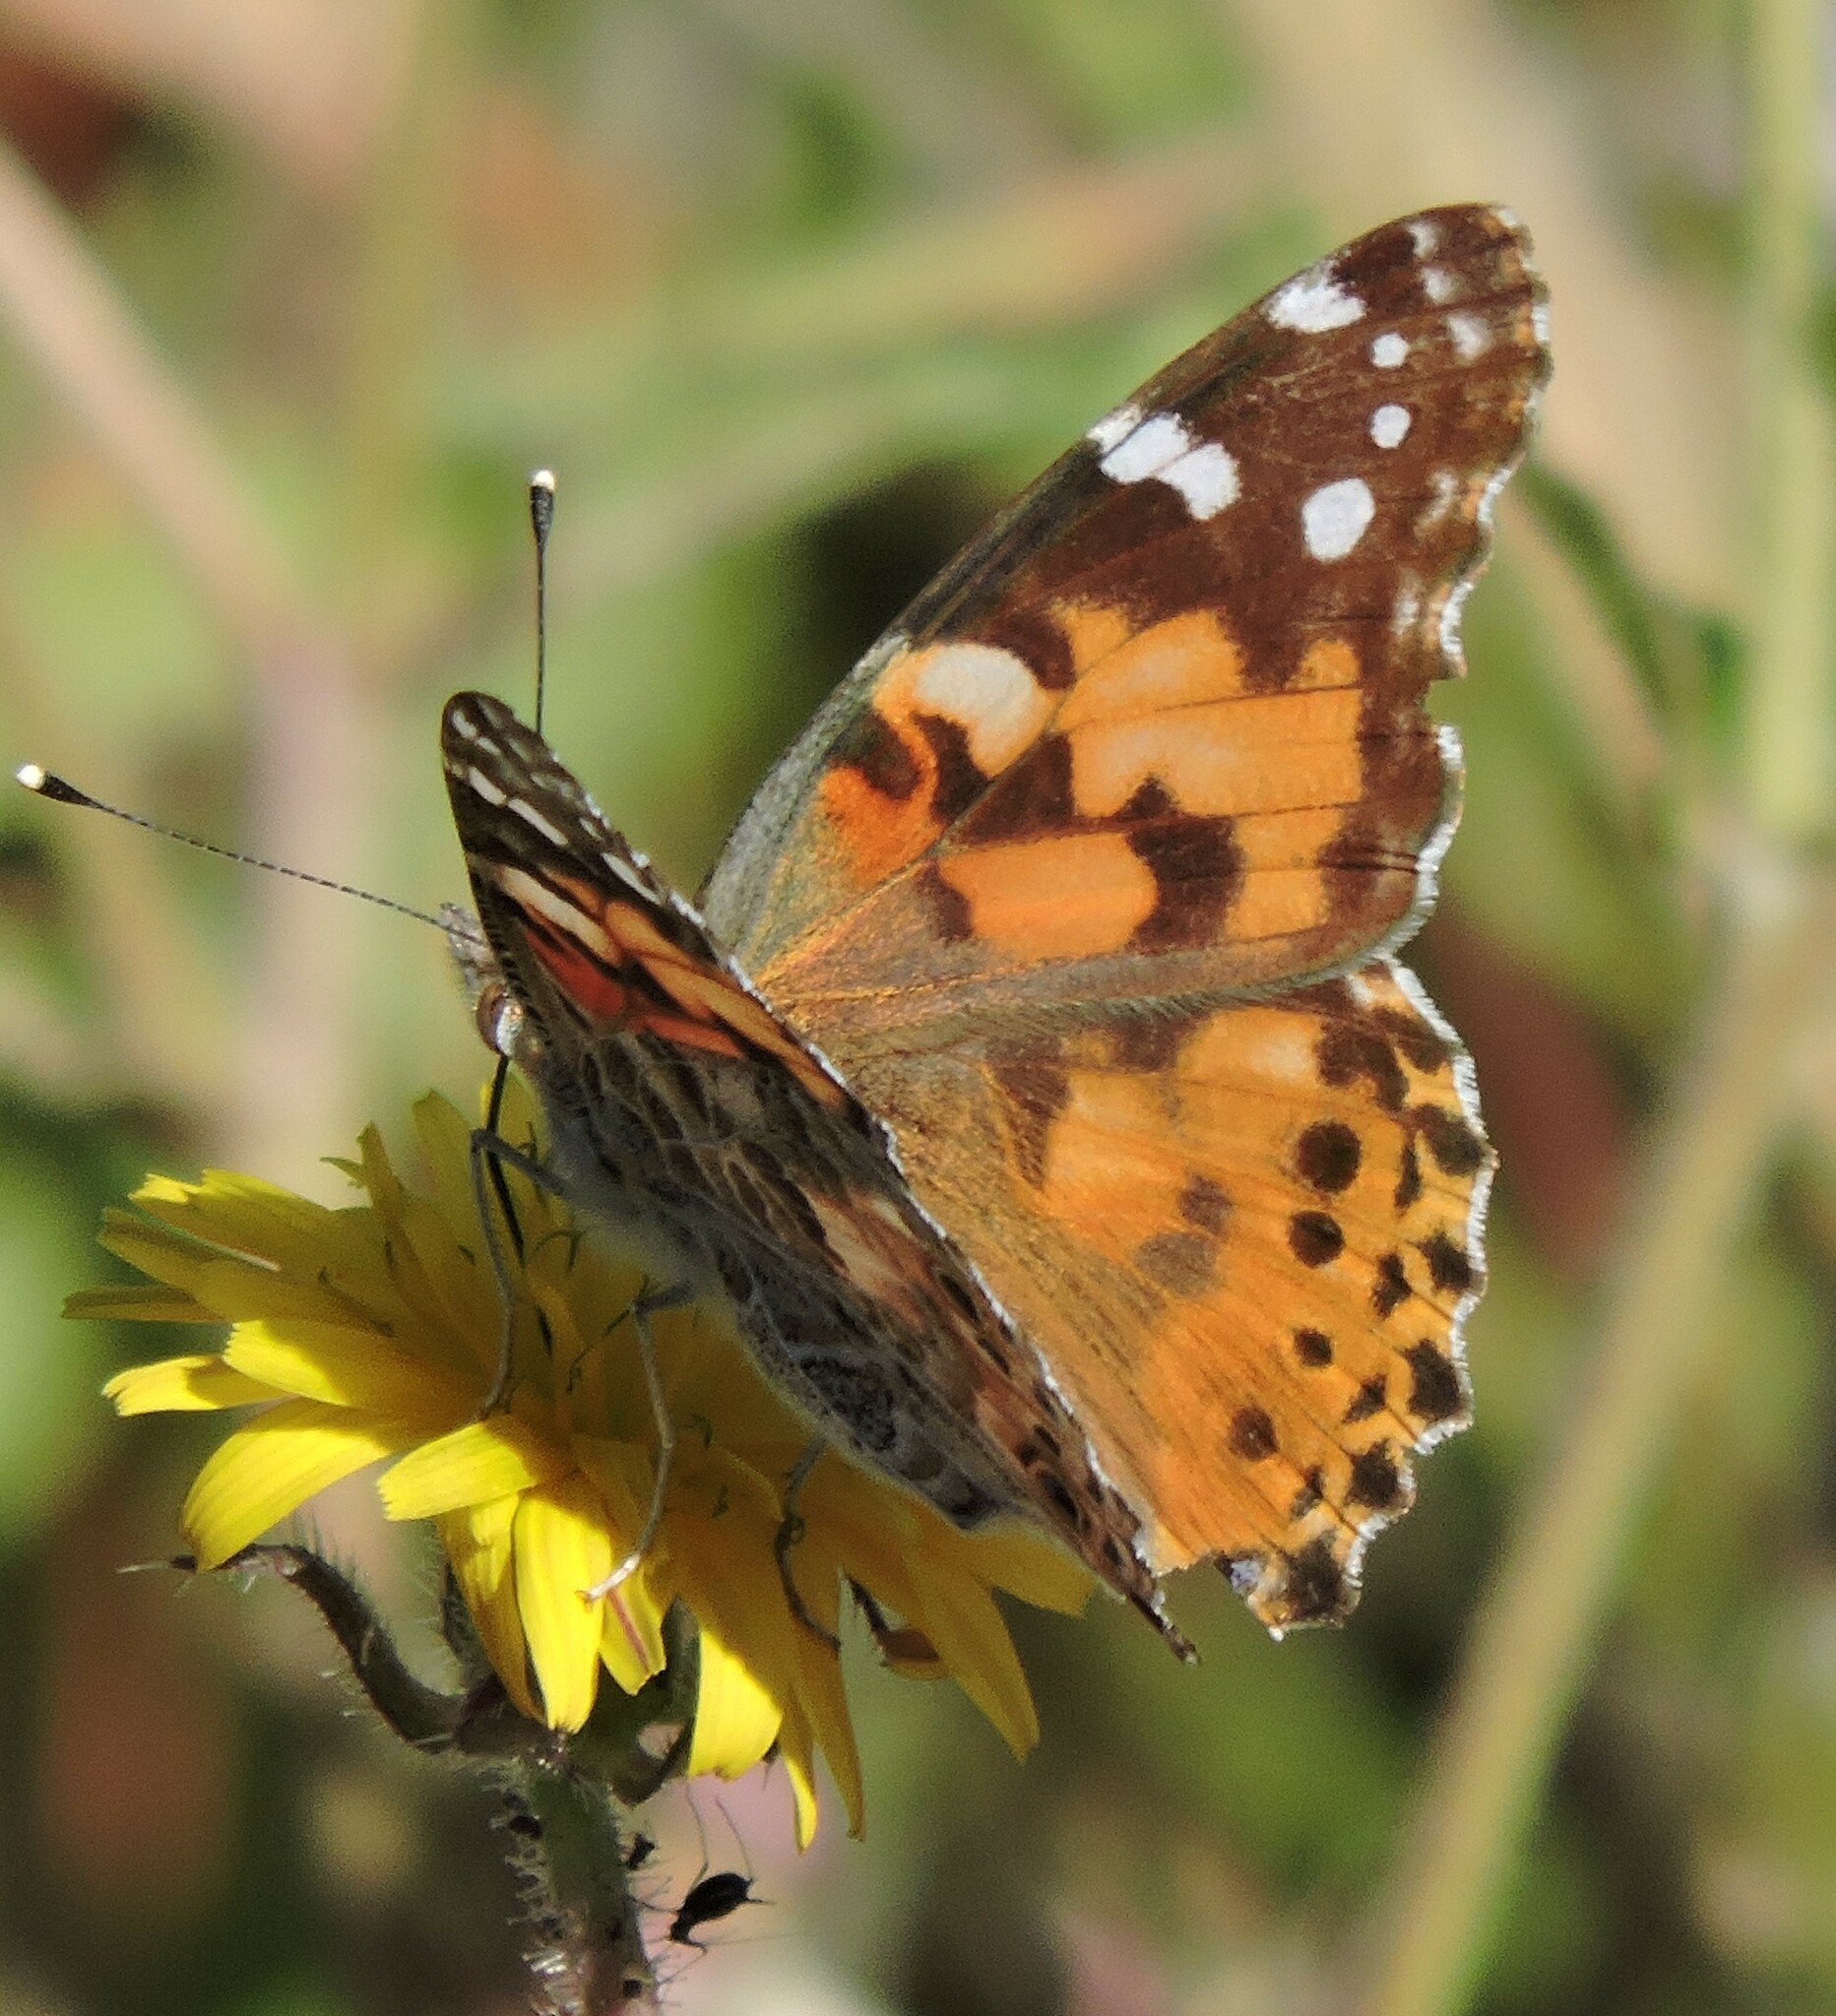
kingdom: Animalia
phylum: Arthropoda
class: Insecta
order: Lepidoptera
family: Nymphalidae
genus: Vanessa
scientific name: Vanessa cardui
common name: Painted lady
